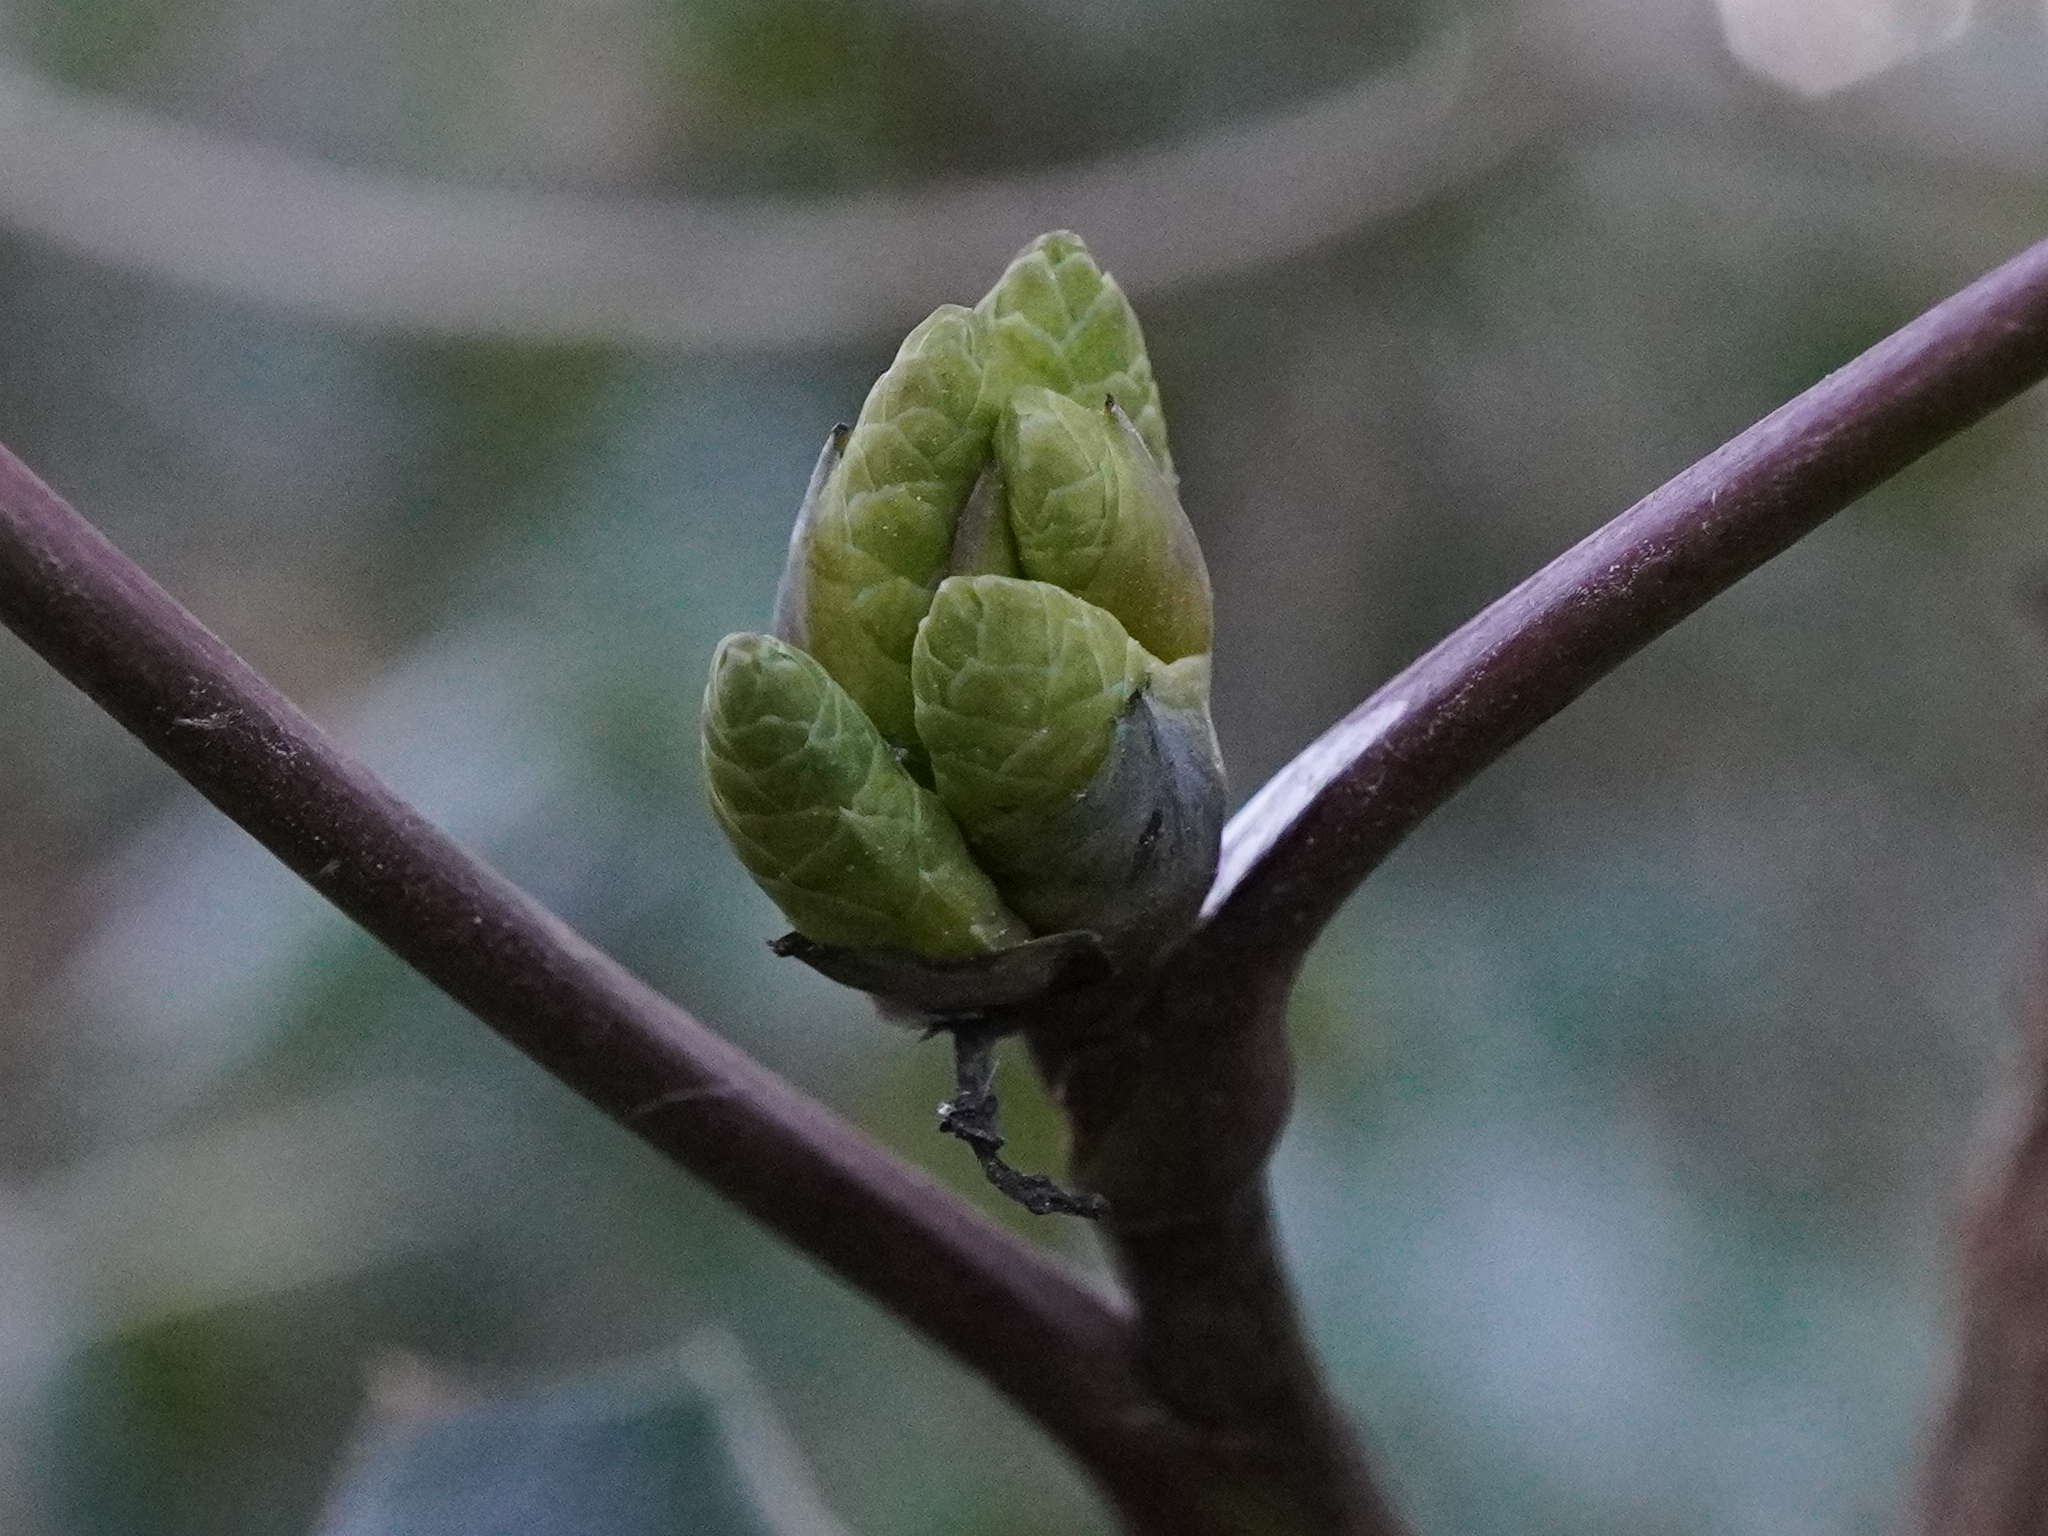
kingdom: Plantae
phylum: Tracheophyta
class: Magnoliopsida
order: Ranunculales
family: Berberidaceae
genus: Mahonia
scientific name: Mahonia aquifolium
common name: Oregon-grape
